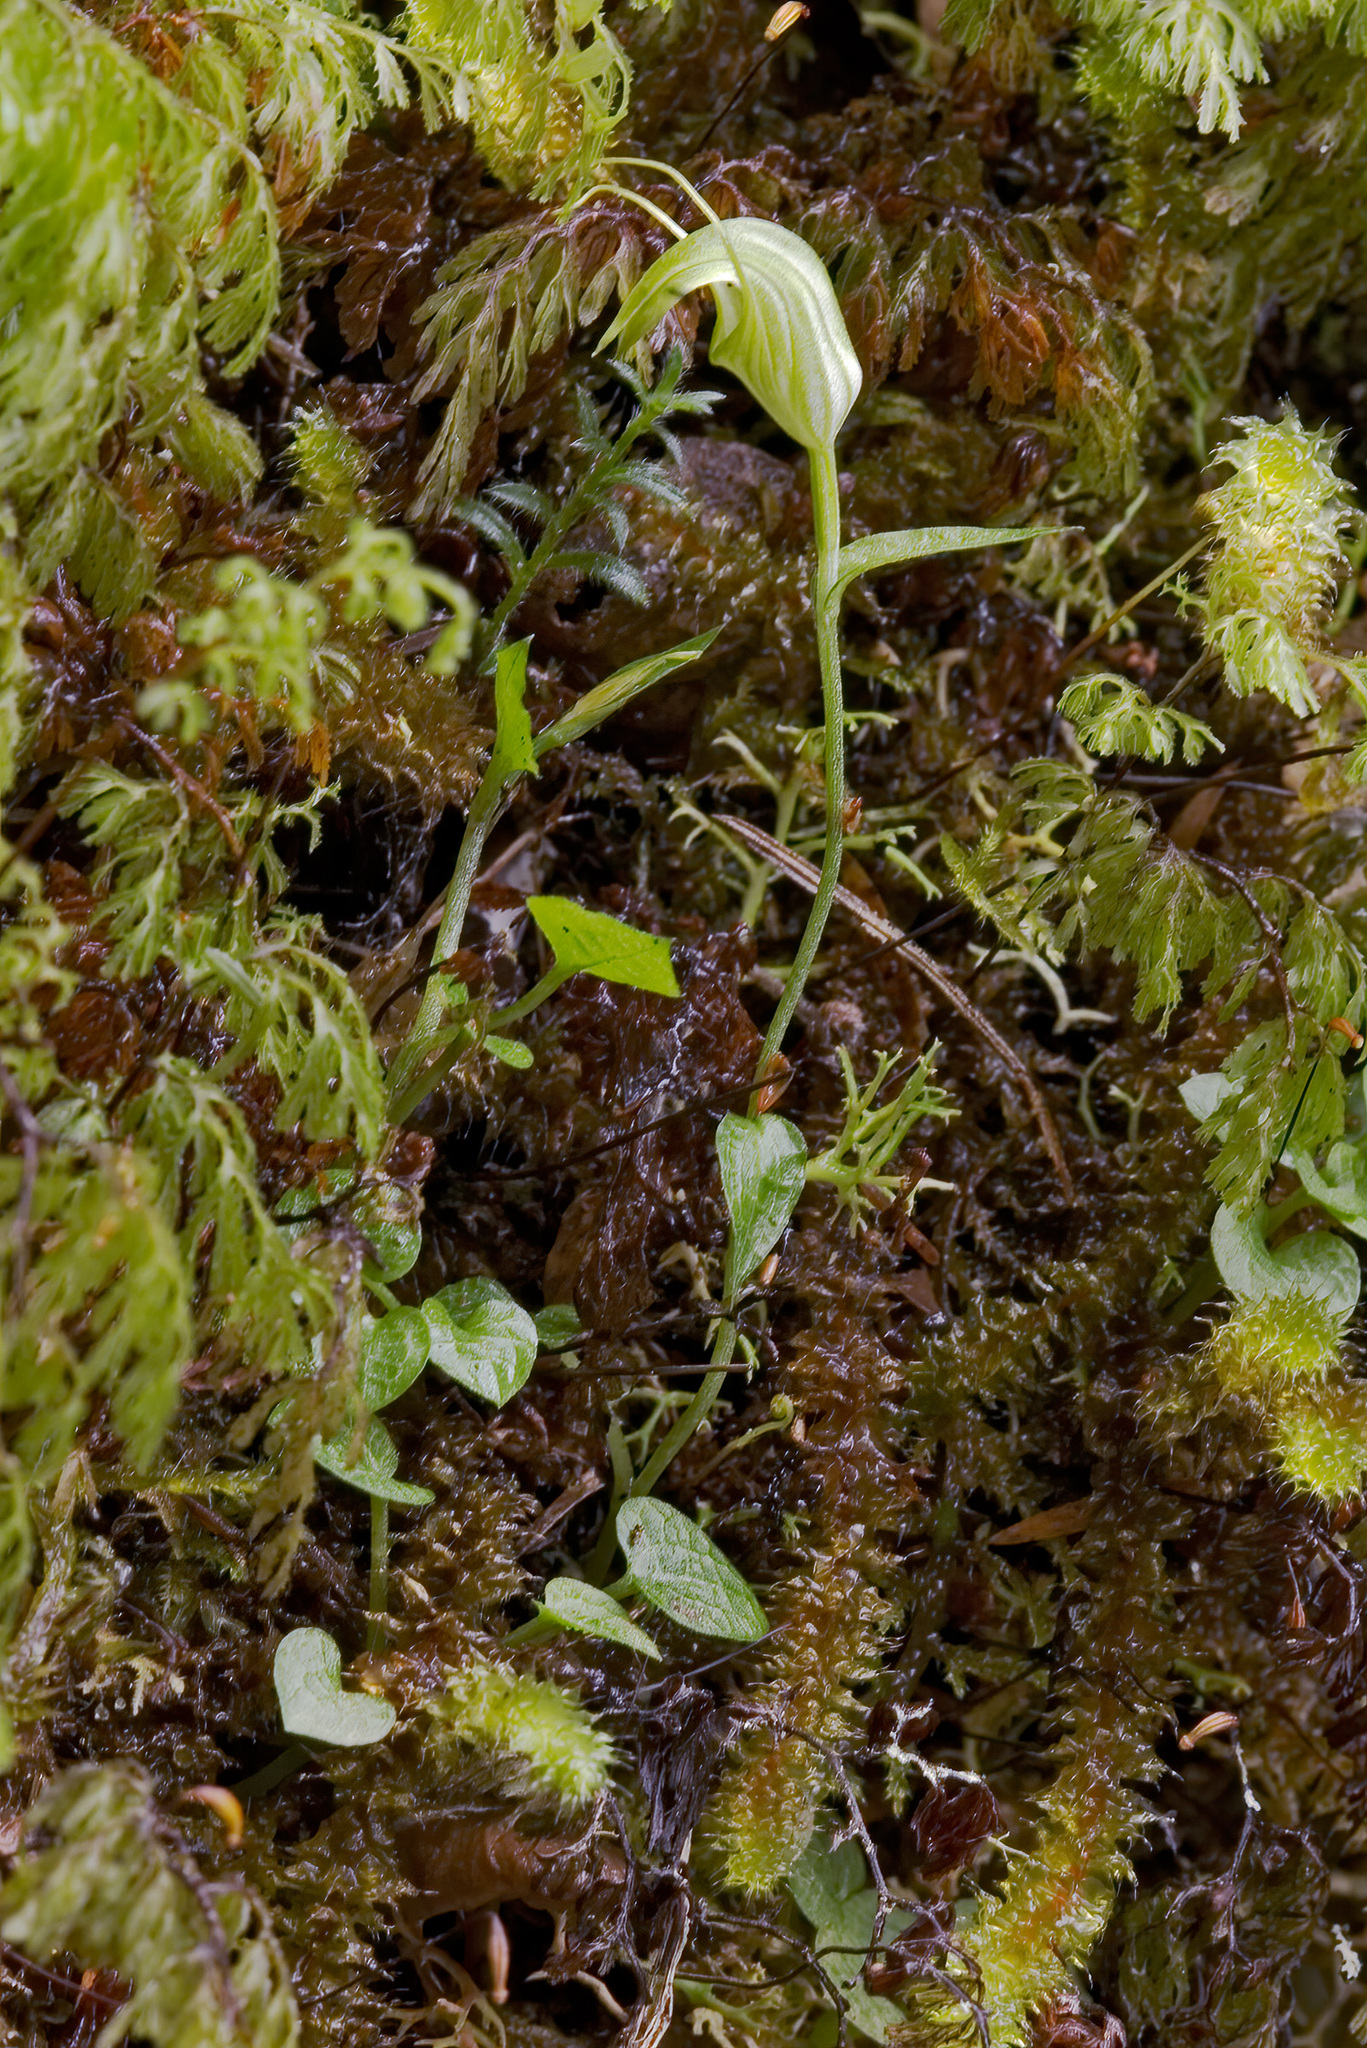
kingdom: Plantae
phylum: Tracheophyta
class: Liliopsida
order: Asparagales
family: Orchidaceae
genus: Pterostylis
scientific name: Pterostylis trullifolia
